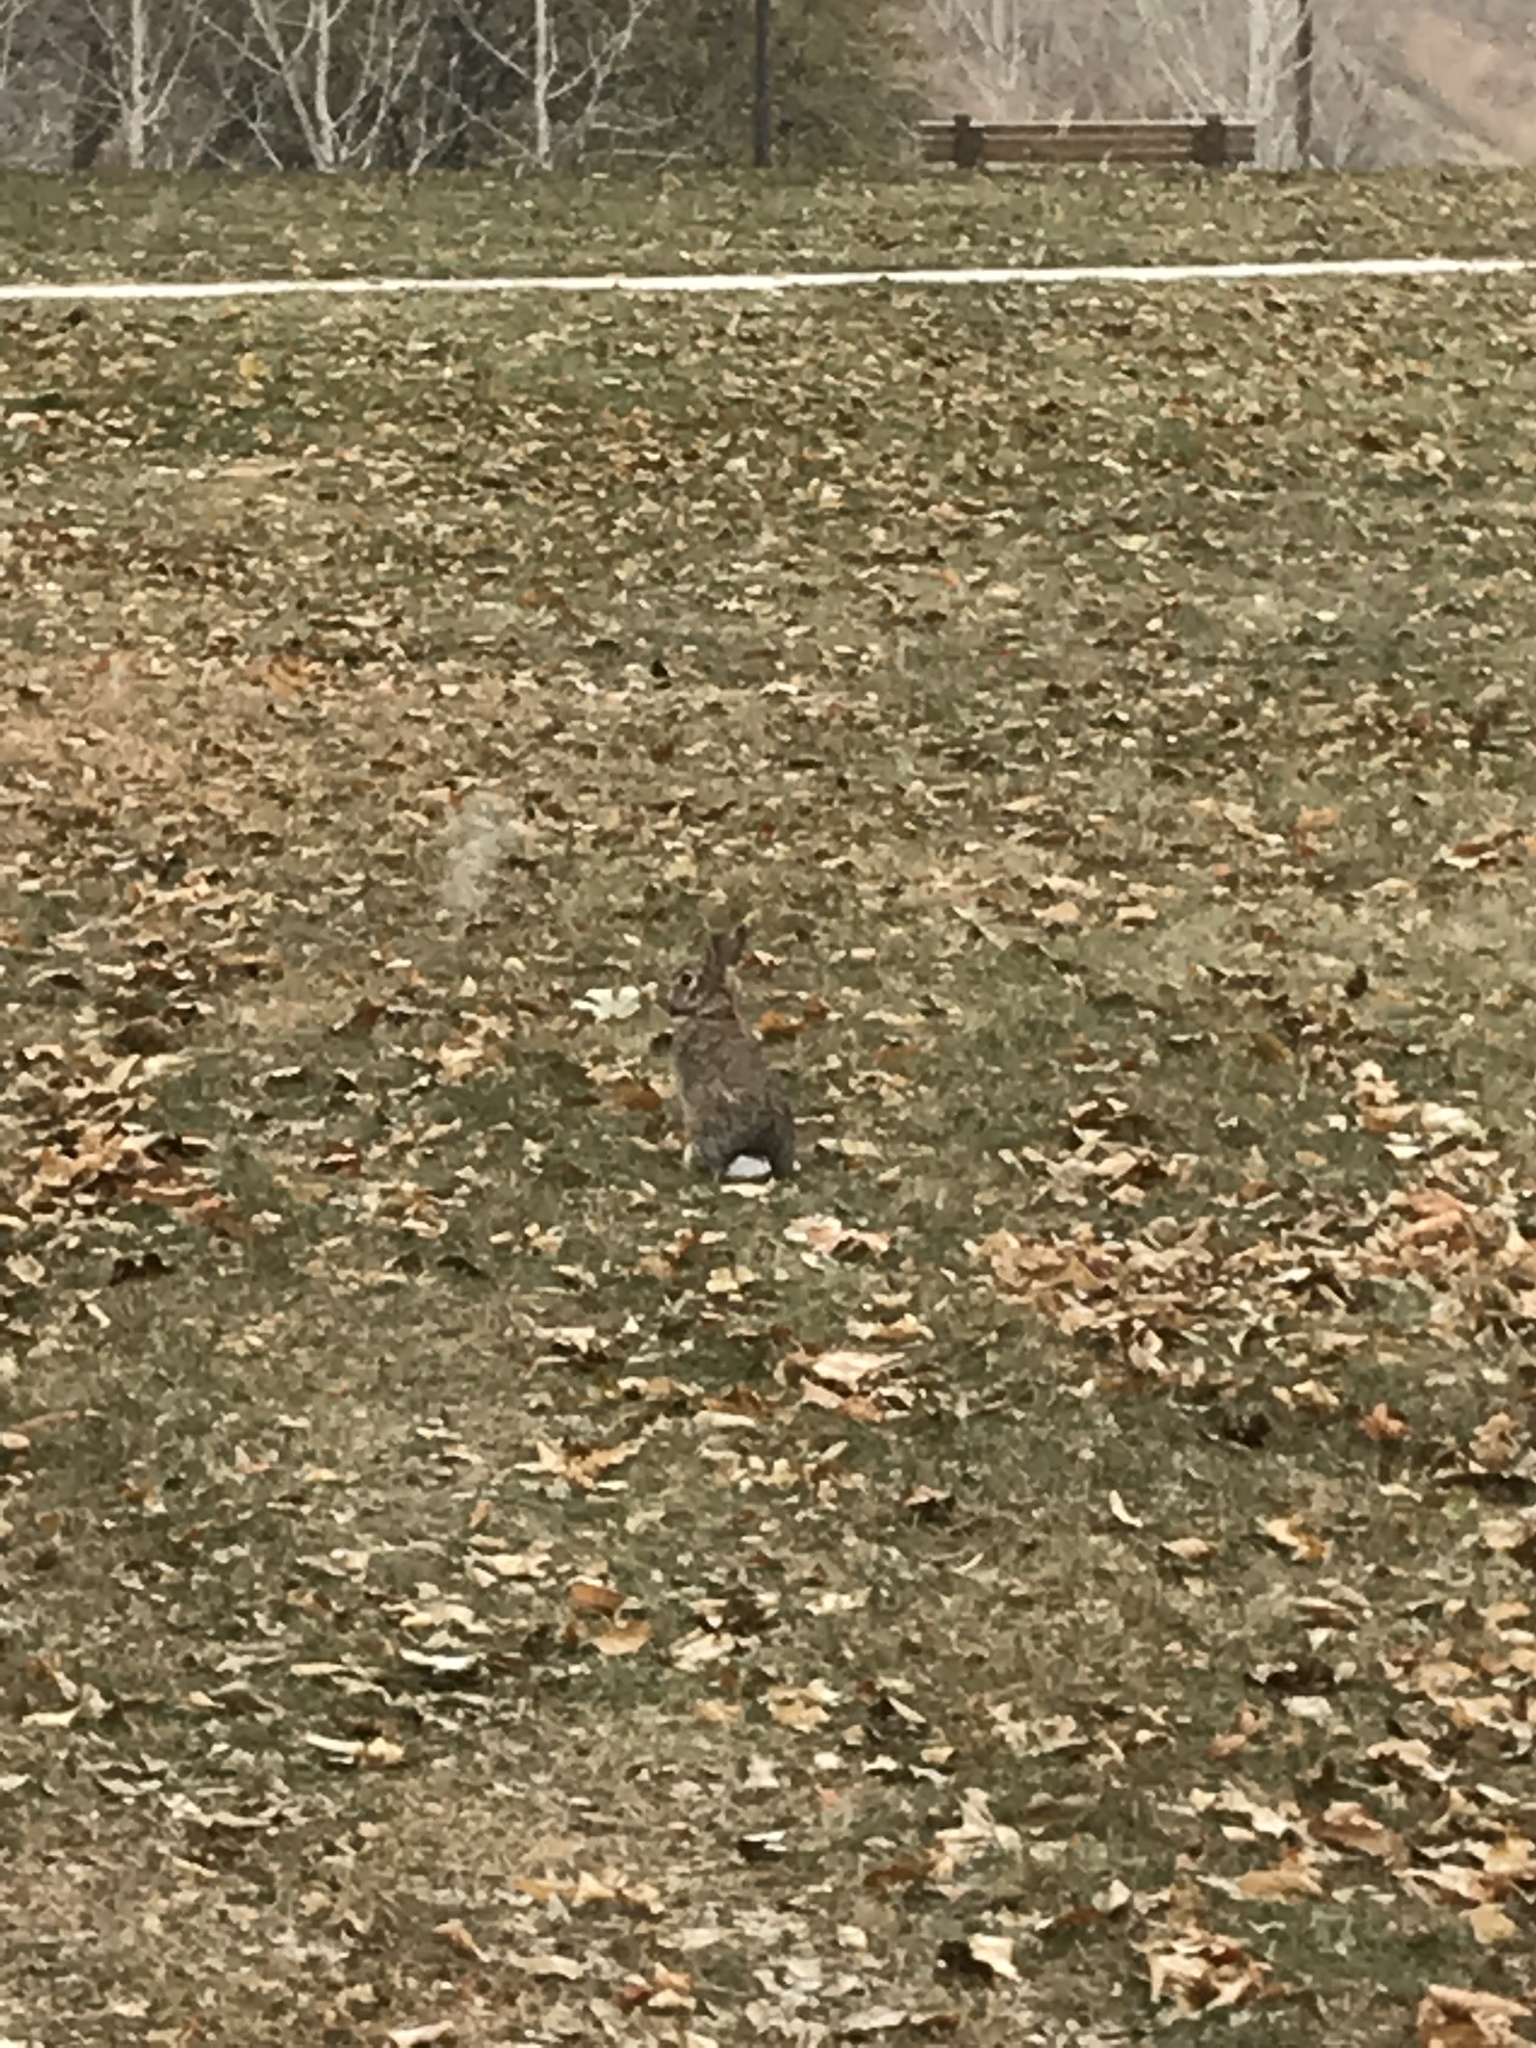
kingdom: Animalia
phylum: Chordata
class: Mammalia
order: Lagomorpha
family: Leporidae
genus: Sylvilagus
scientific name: Sylvilagus floridanus
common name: Eastern cottontail
